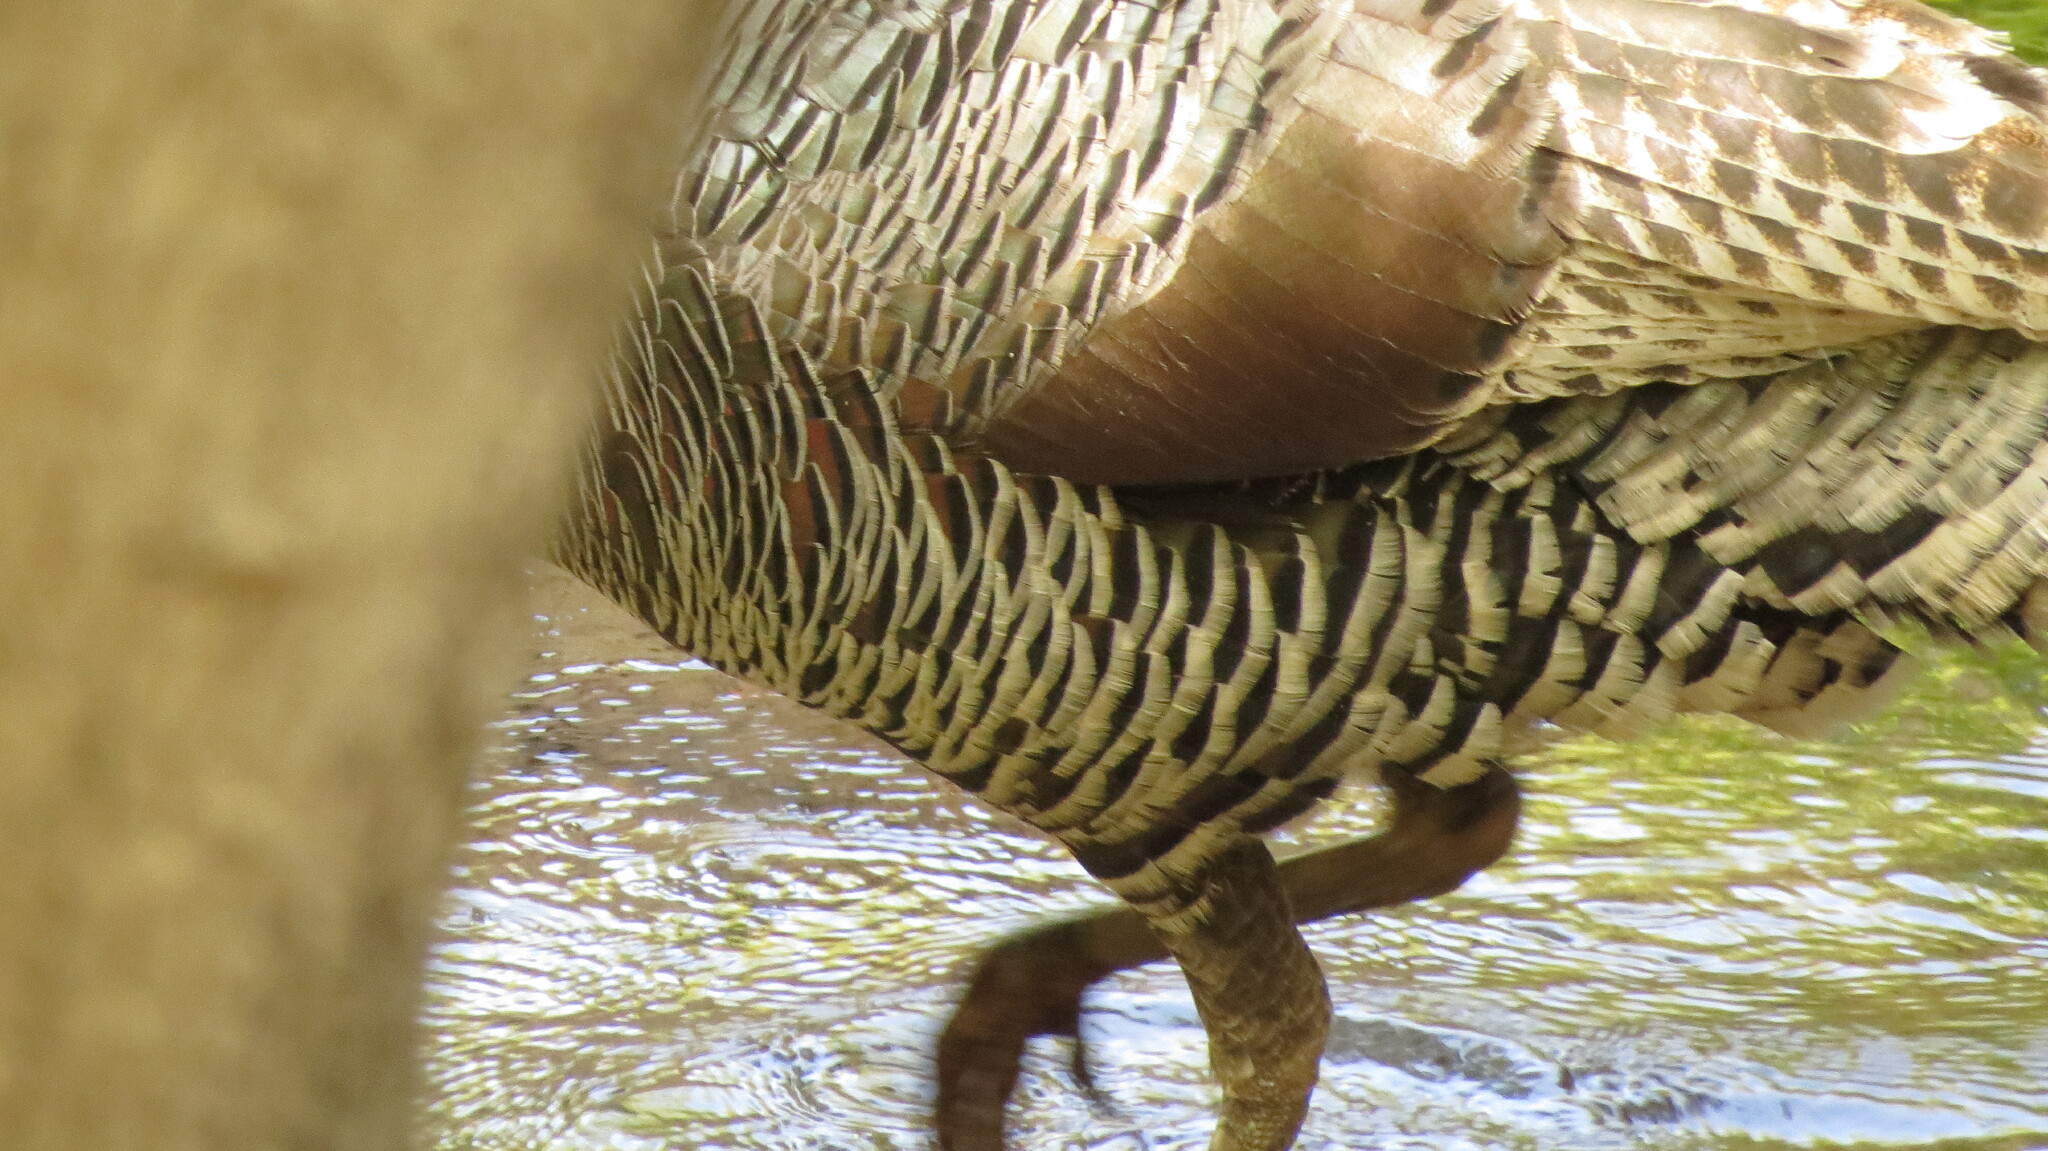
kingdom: Animalia
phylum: Chordata
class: Aves
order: Galliformes
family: Phasianidae
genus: Meleagris
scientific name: Meleagris gallopavo
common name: Wild turkey
